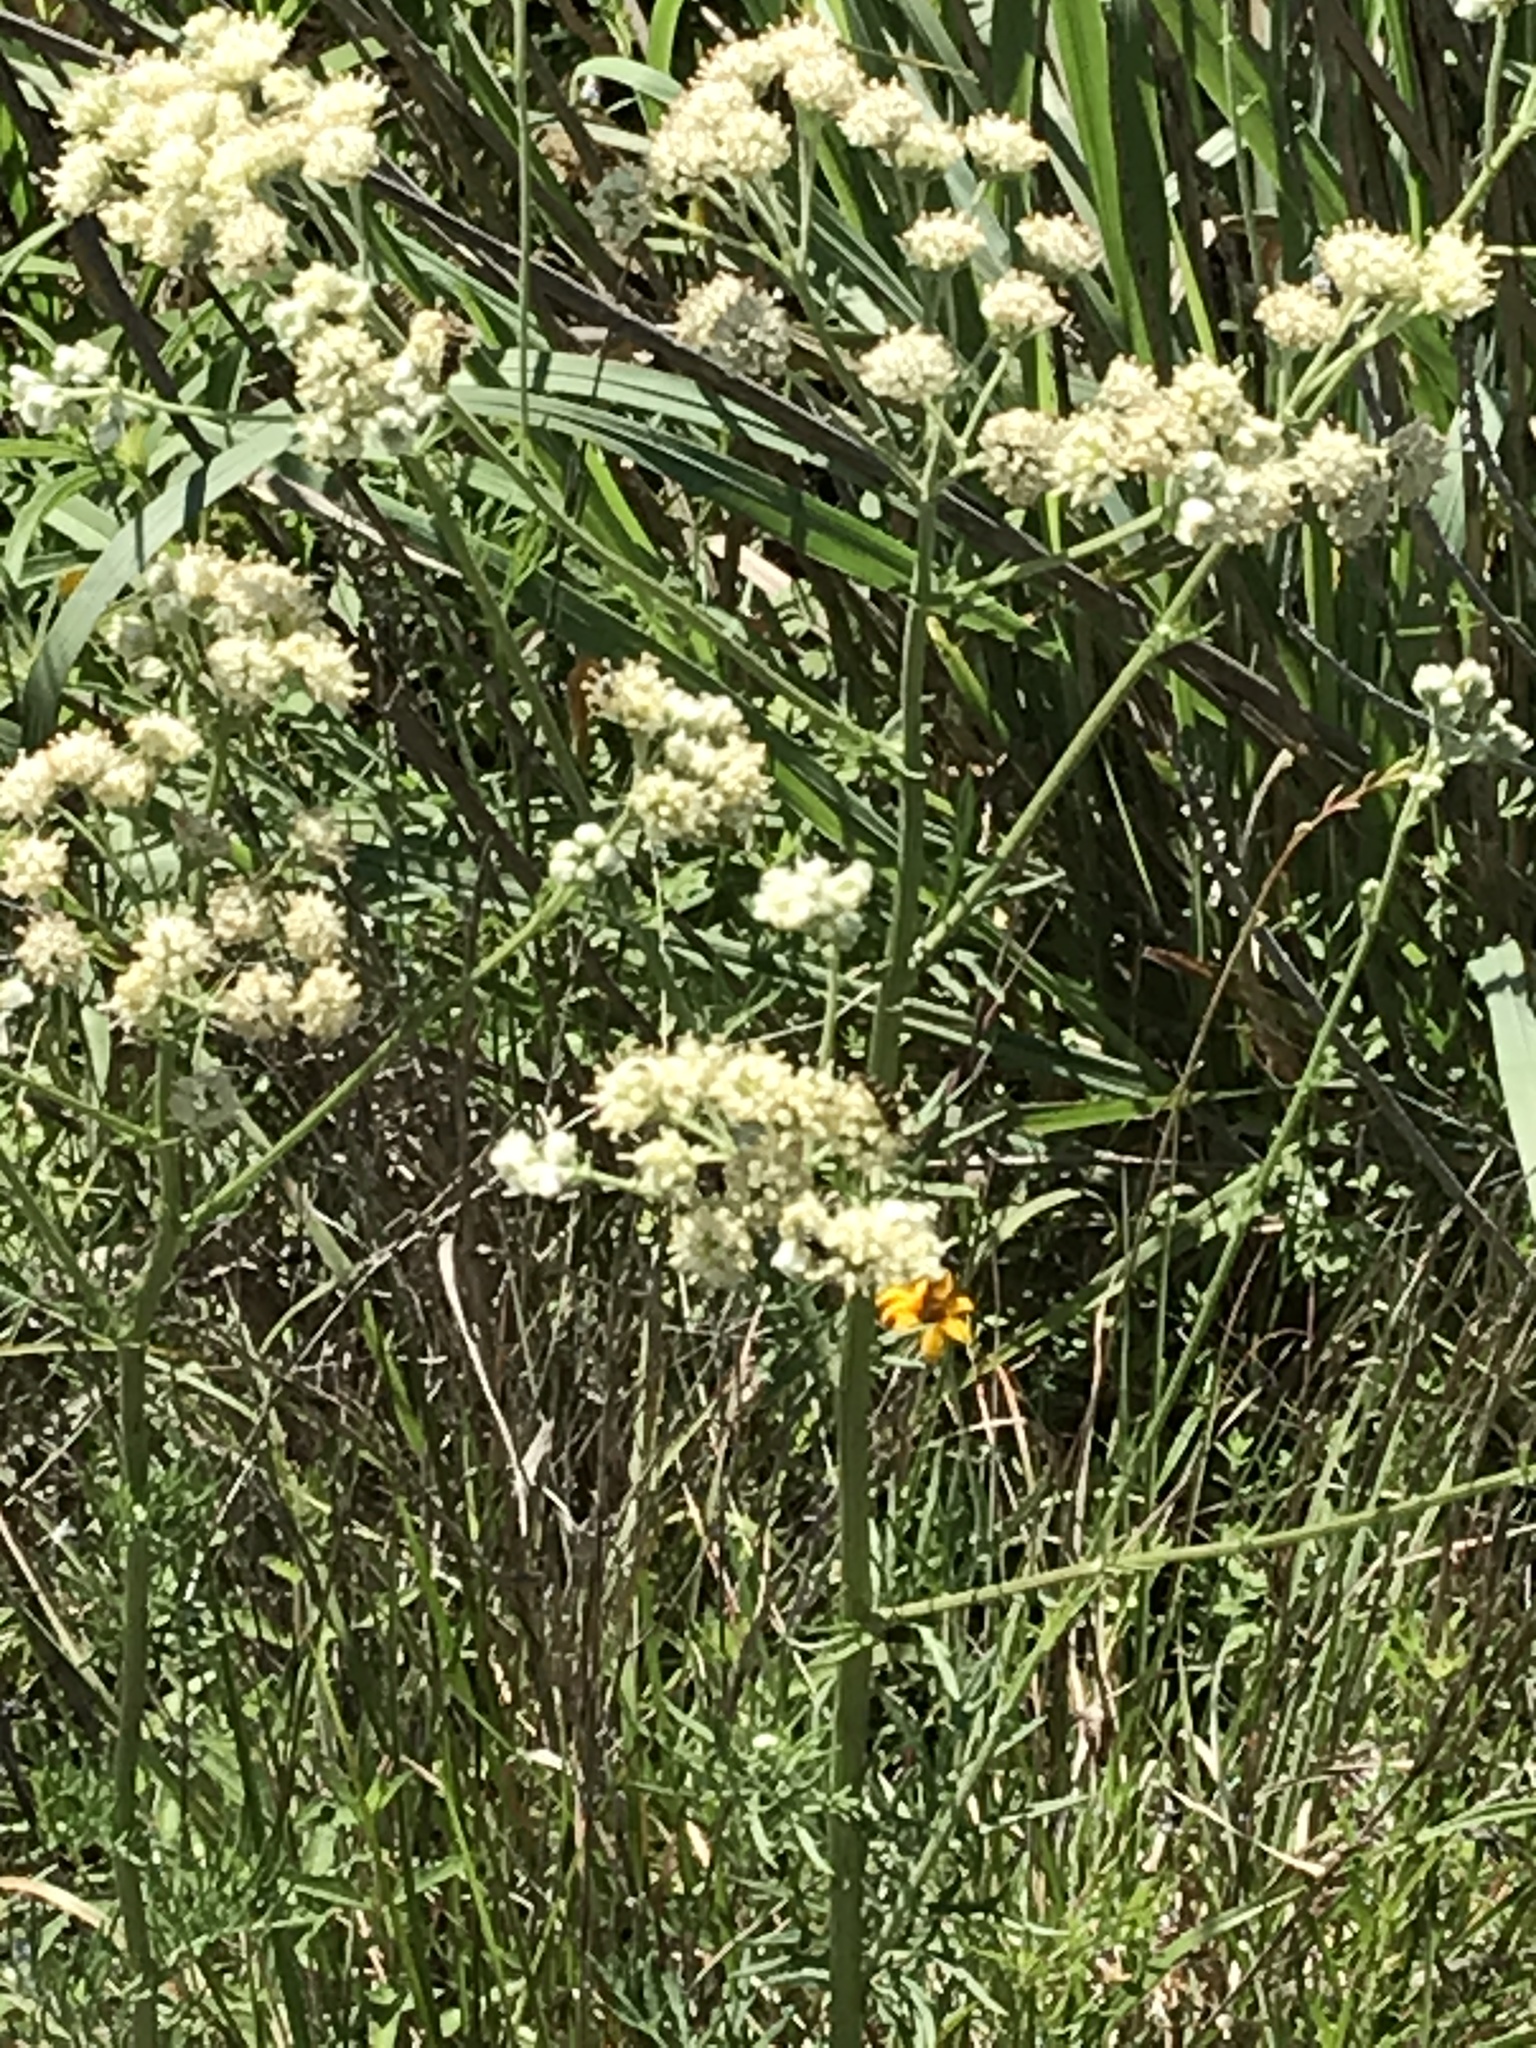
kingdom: Plantae
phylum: Tracheophyta
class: Magnoliopsida
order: Asterales
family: Asteraceae
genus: Hymenopappus
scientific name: Hymenopappus scabiosaeus
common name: Carolina woollywhite
